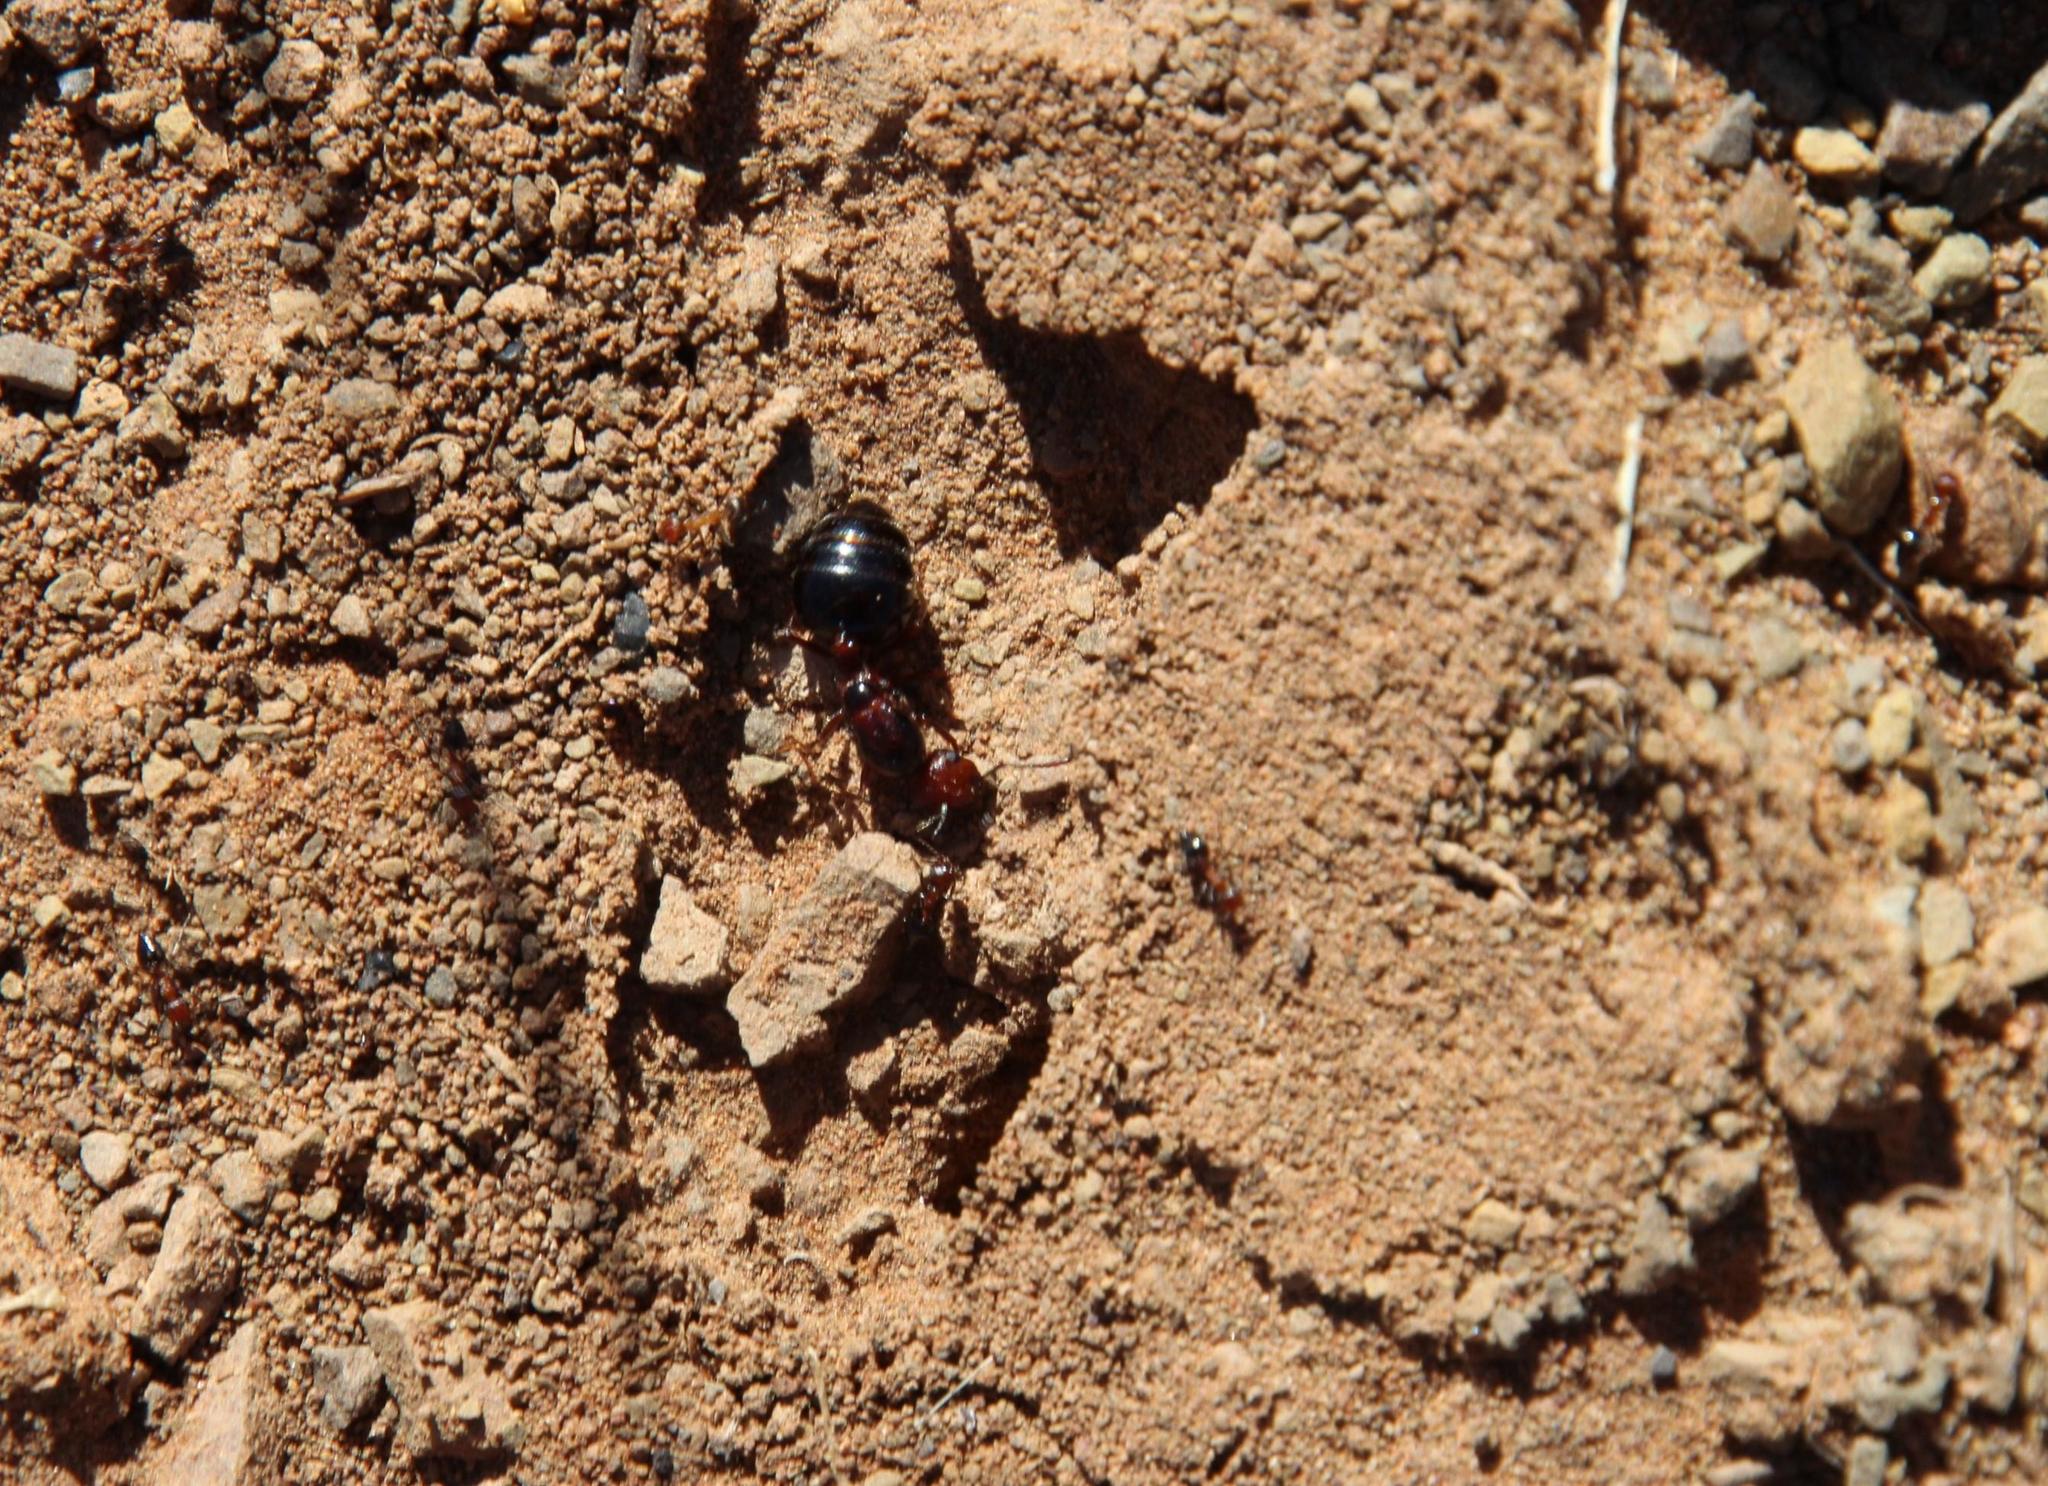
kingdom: Animalia
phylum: Arthropoda
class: Insecta
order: Hymenoptera
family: Formicidae
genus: Crematogaster
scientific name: Crematogaster melanogaster
